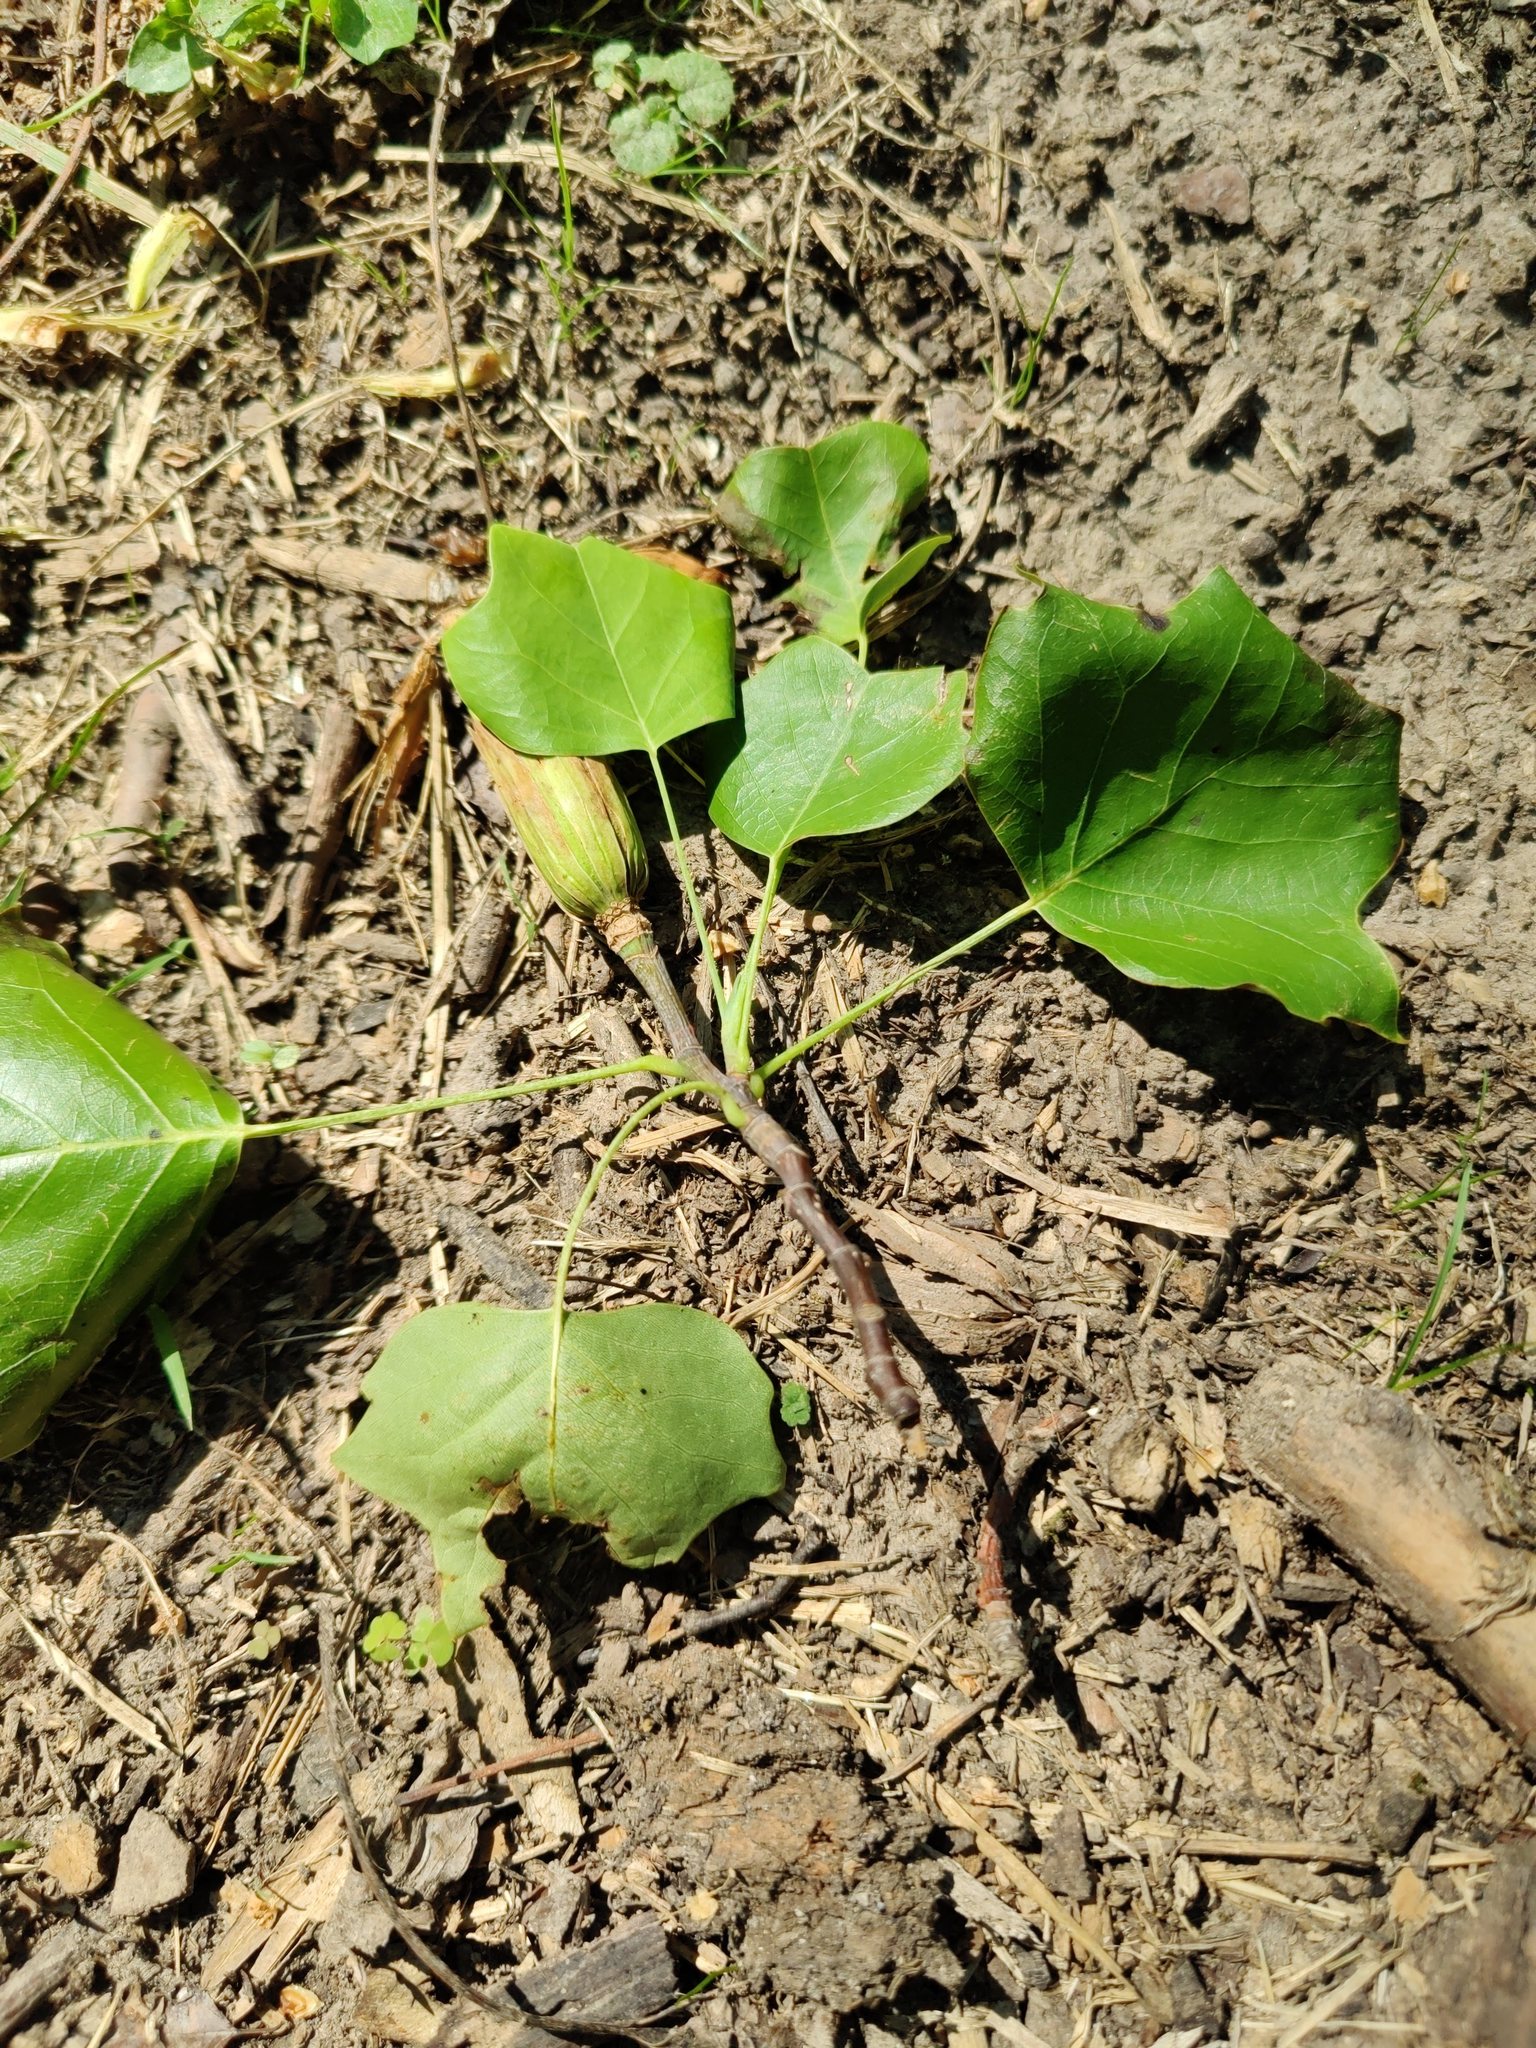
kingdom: Plantae
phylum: Tracheophyta
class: Magnoliopsida
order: Magnoliales
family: Magnoliaceae
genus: Liriodendron
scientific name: Liriodendron tulipifera
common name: Tulip tree
